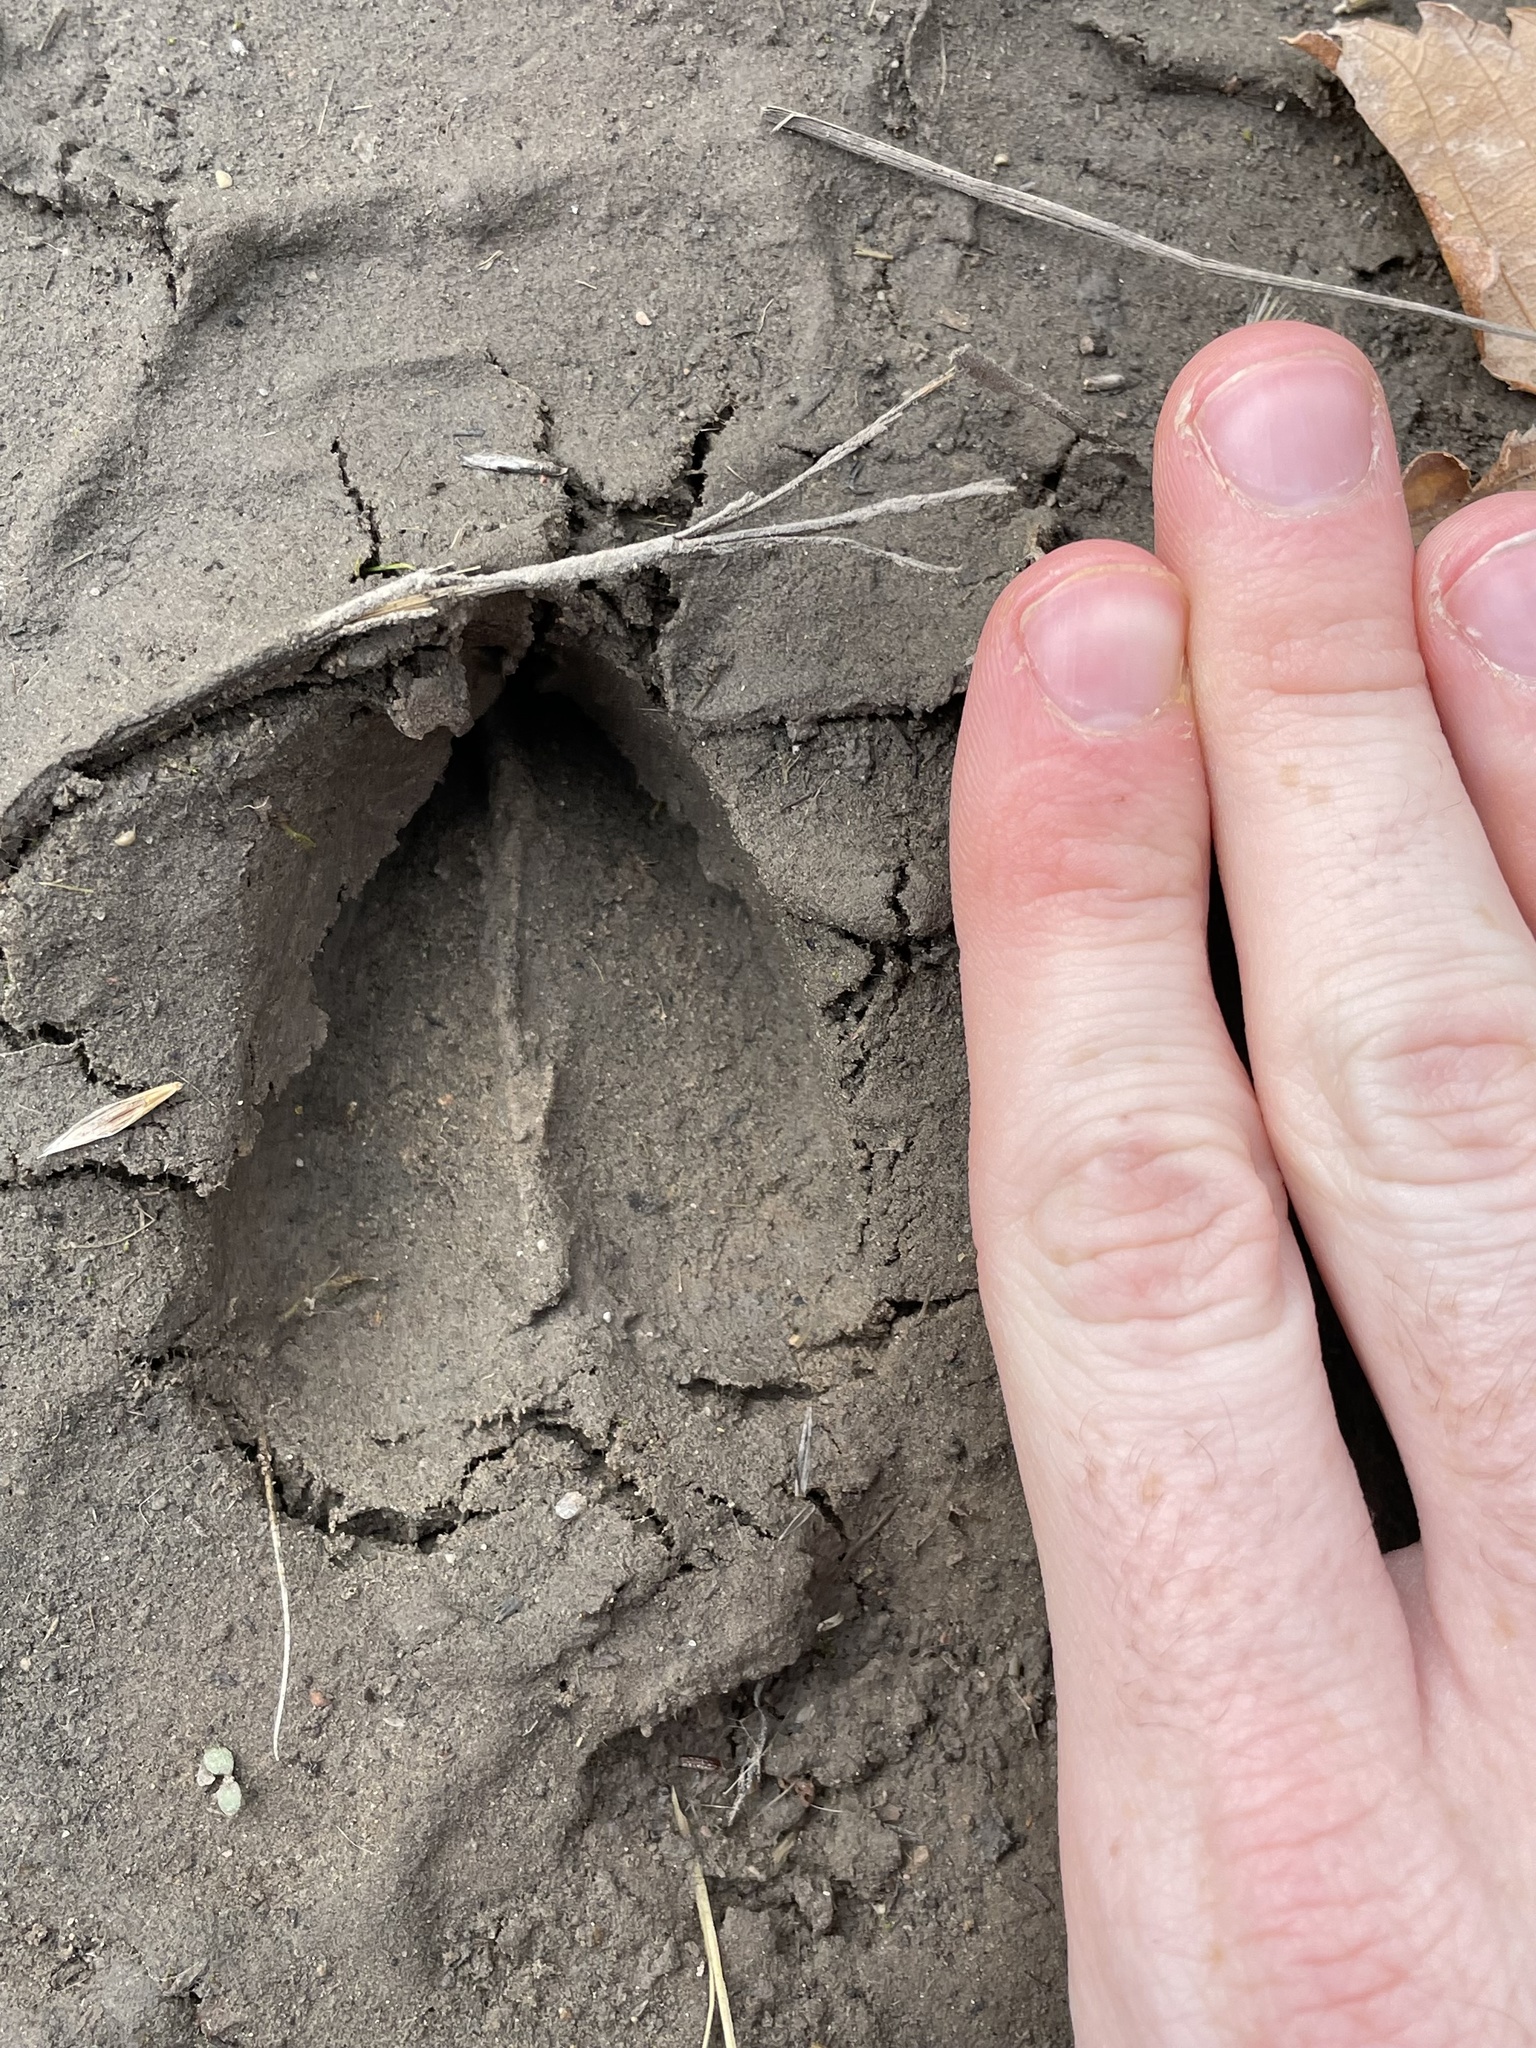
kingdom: Animalia
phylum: Chordata
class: Mammalia
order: Artiodactyla
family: Cervidae
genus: Odocoileus
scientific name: Odocoileus hemionus
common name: Mule deer
